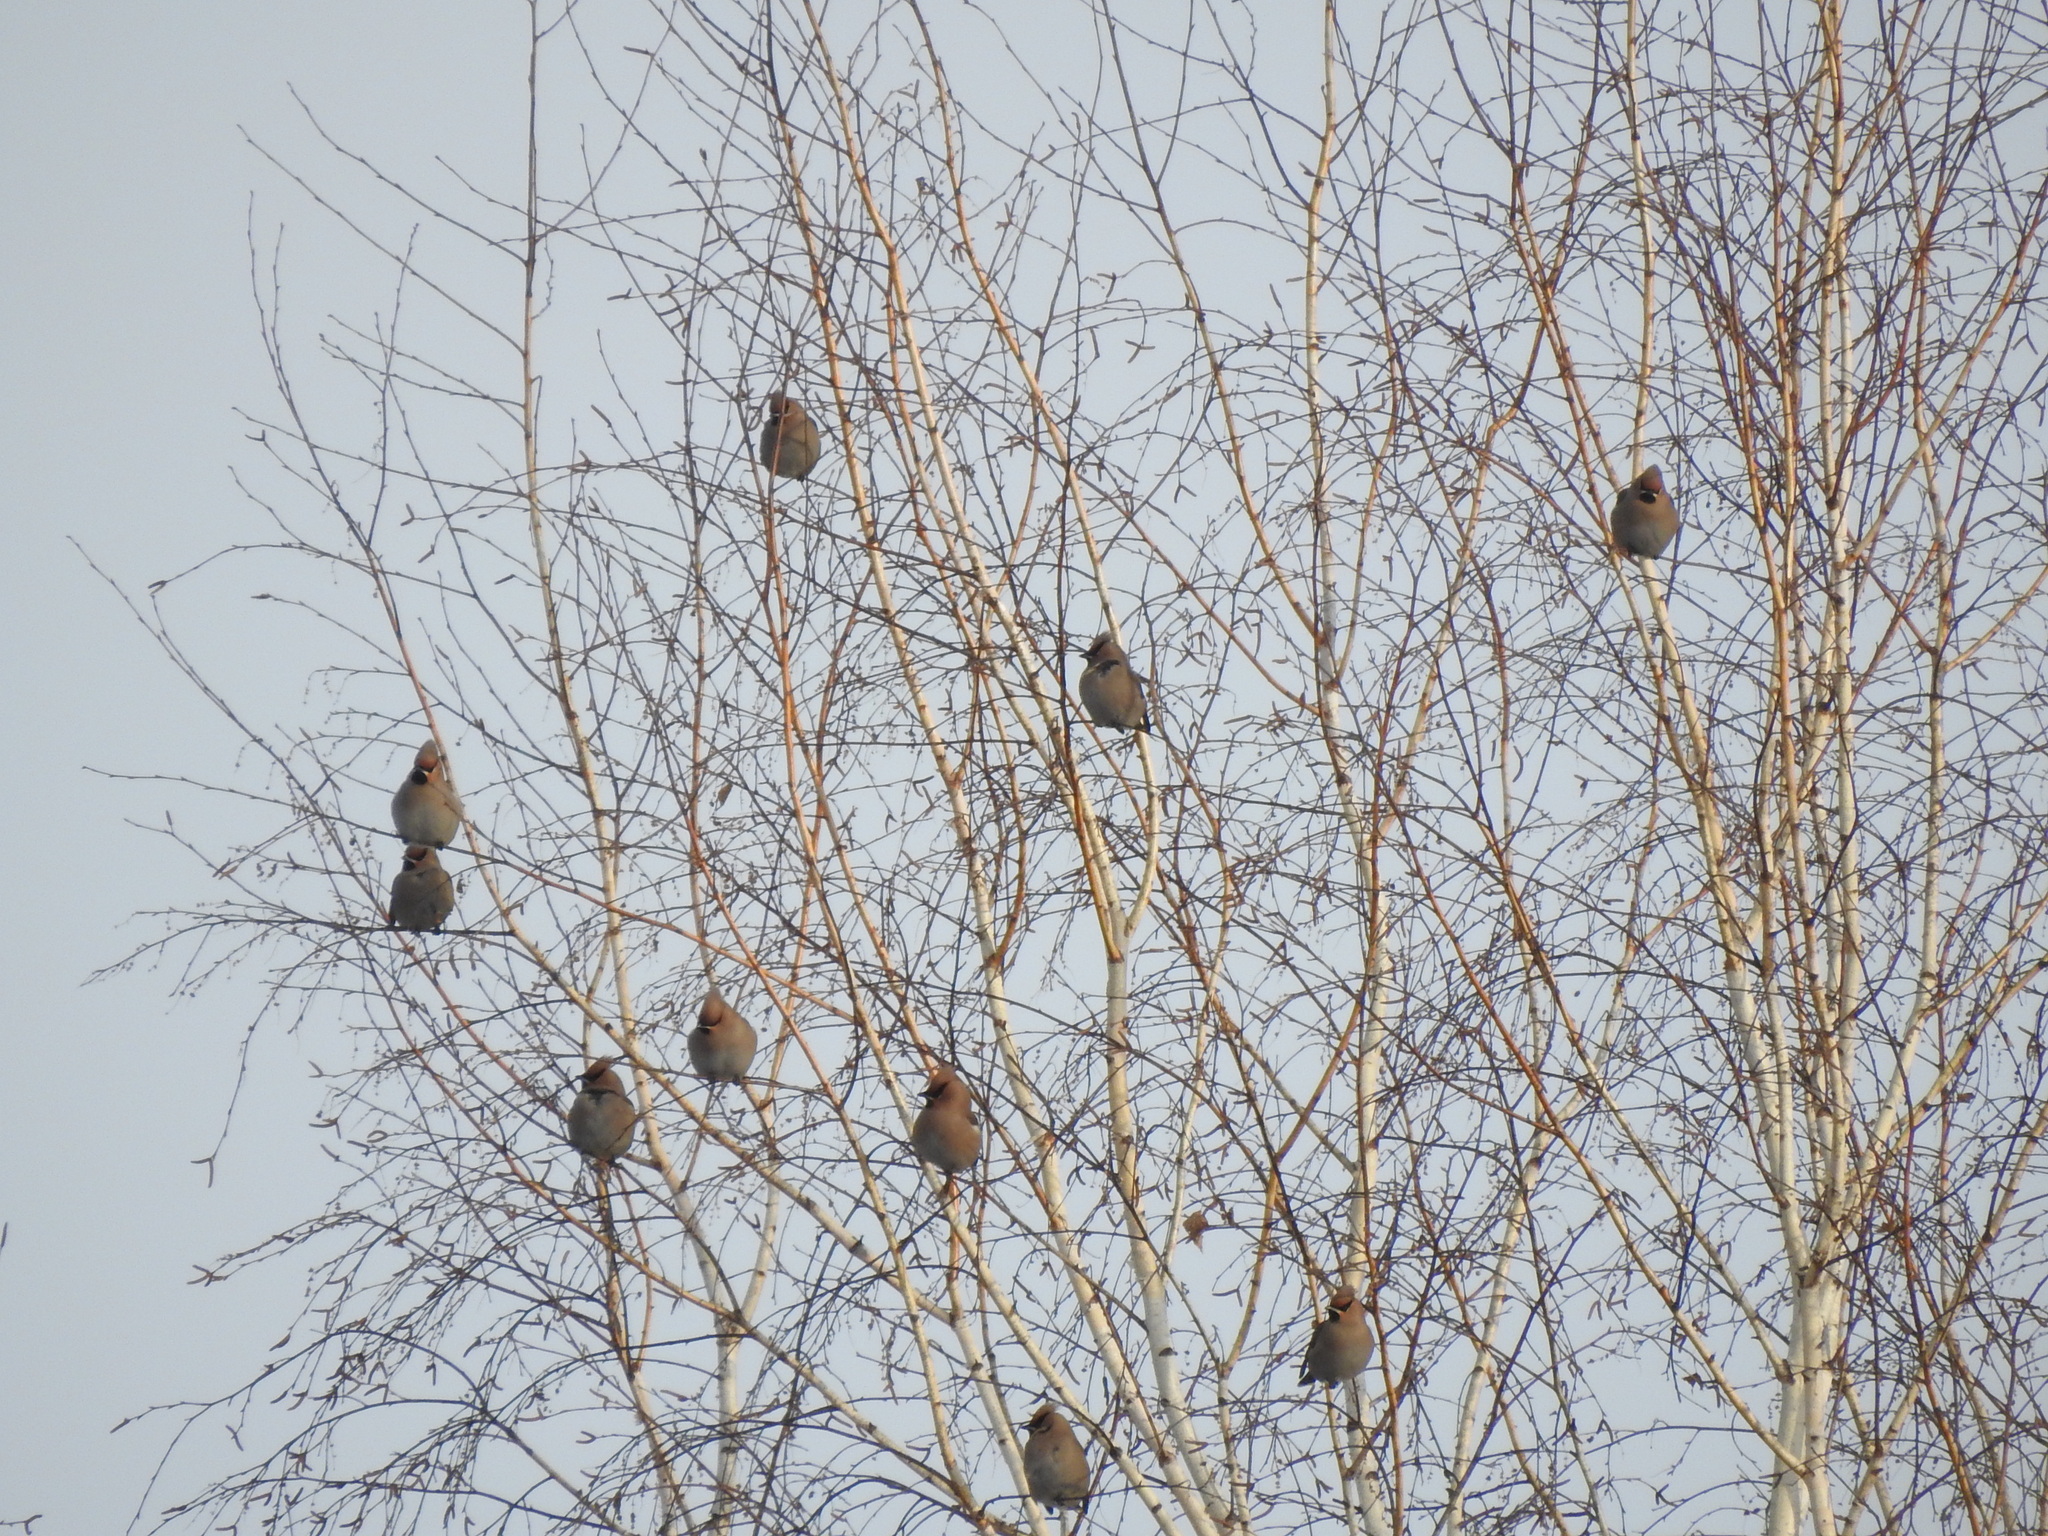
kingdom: Animalia
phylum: Chordata
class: Aves
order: Passeriformes
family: Bombycillidae
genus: Bombycilla
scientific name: Bombycilla garrulus
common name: Bohemian waxwing
